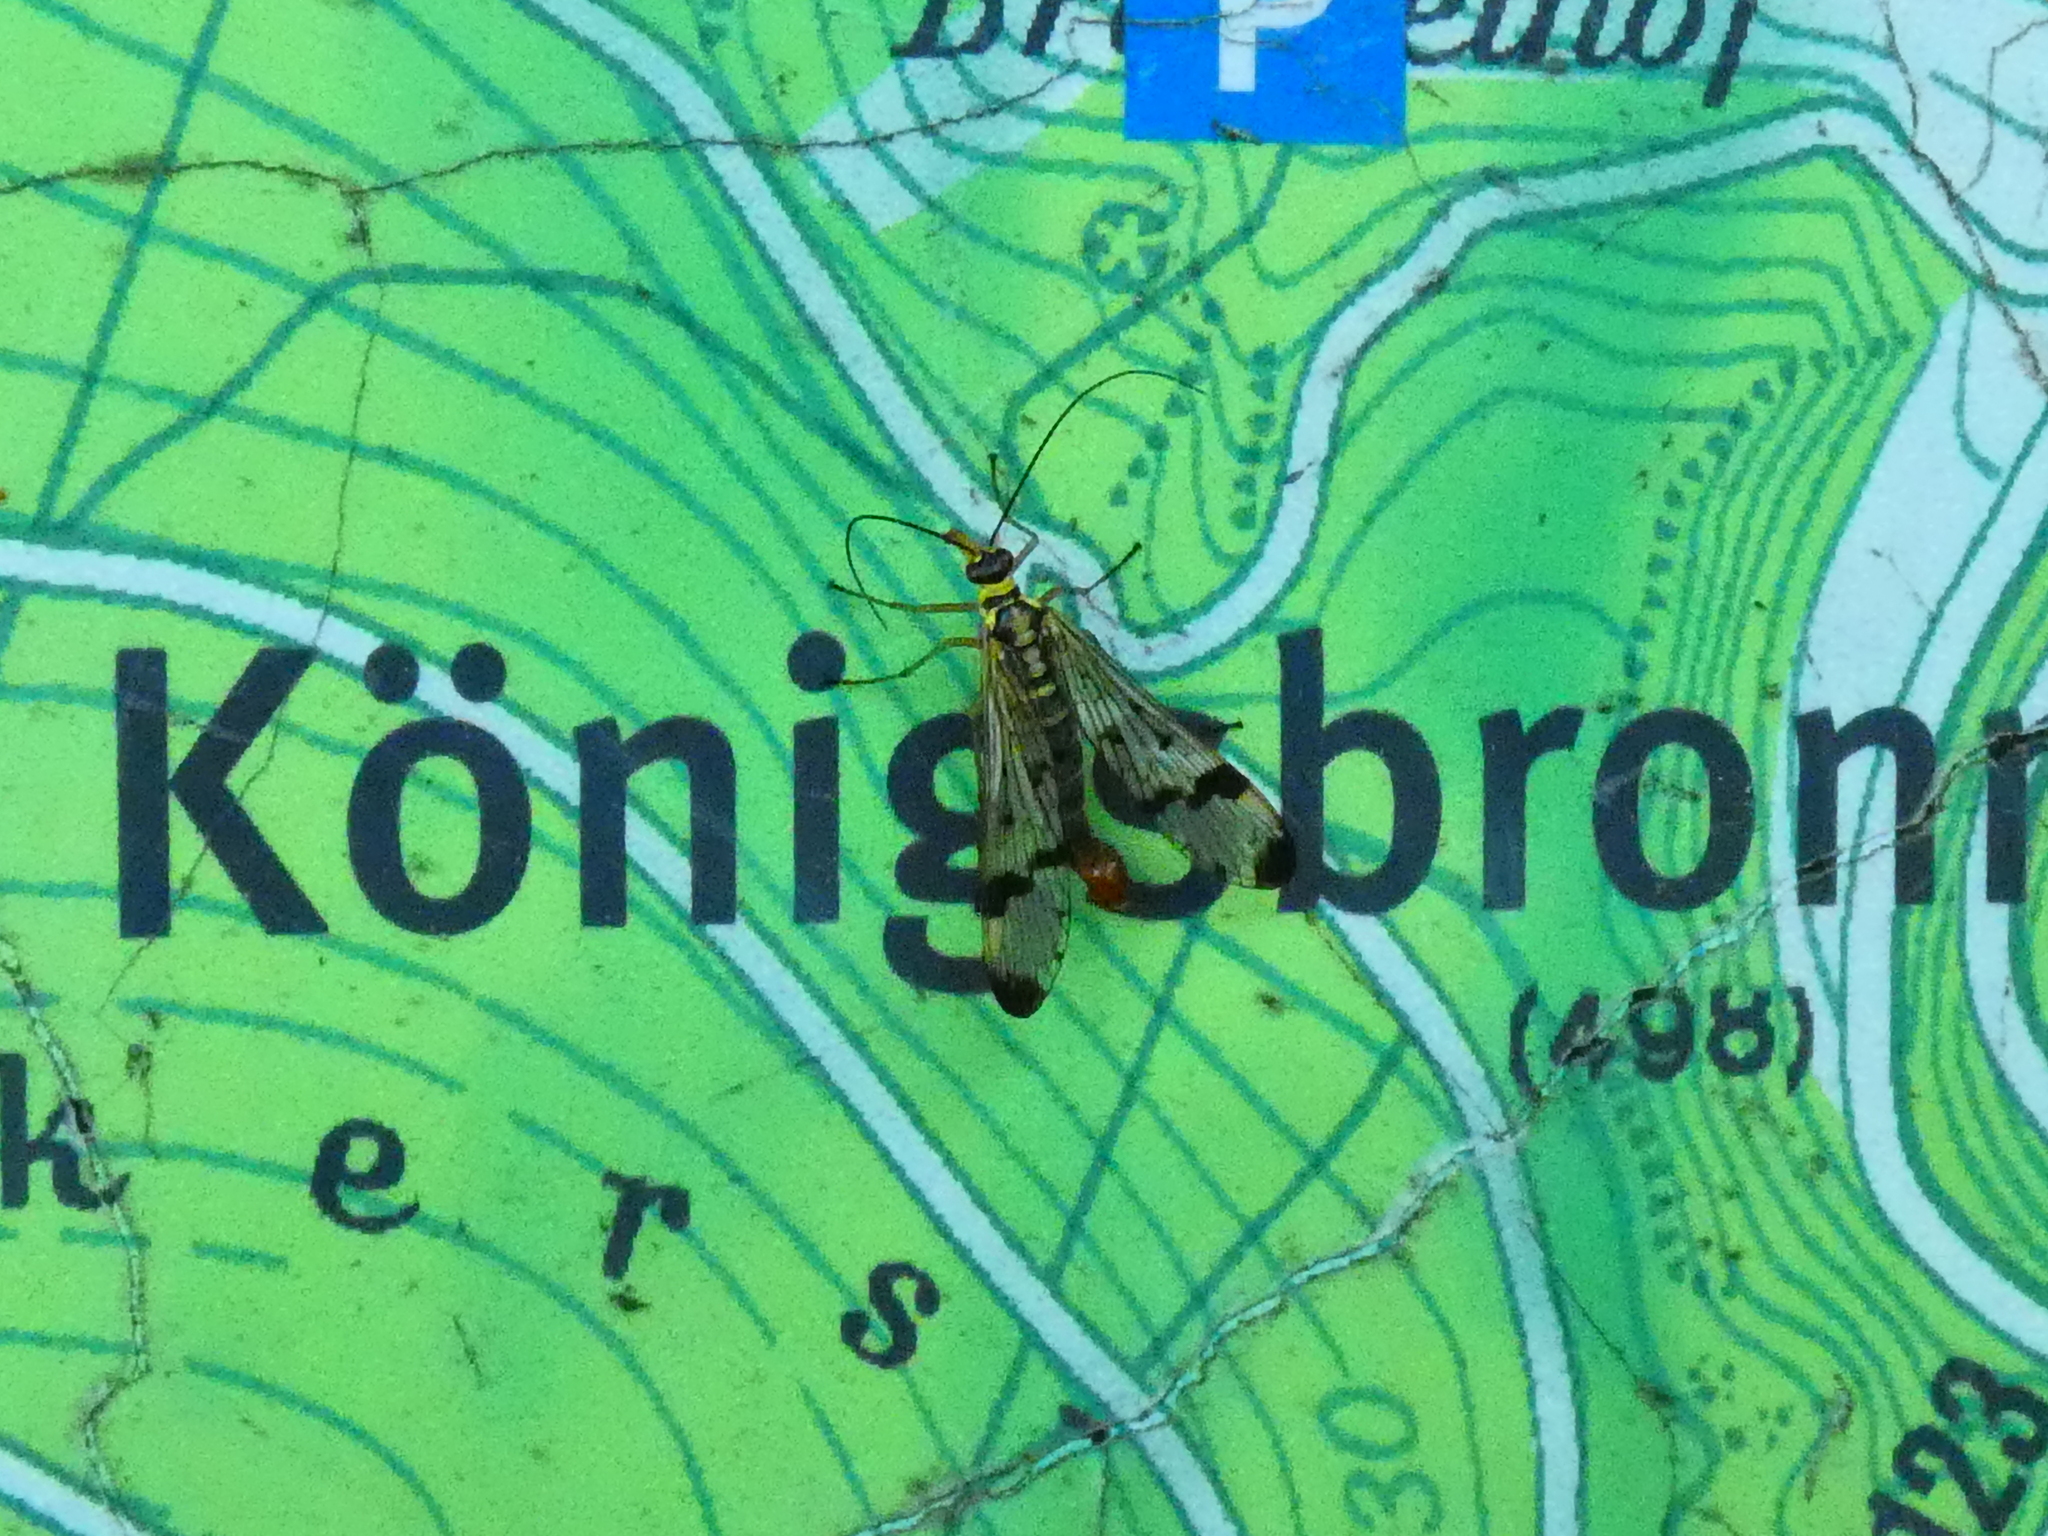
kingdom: Animalia
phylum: Arthropoda
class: Insecta
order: Mecoptera
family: Panorpidae
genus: Panorpa
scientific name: Panorpa communis
